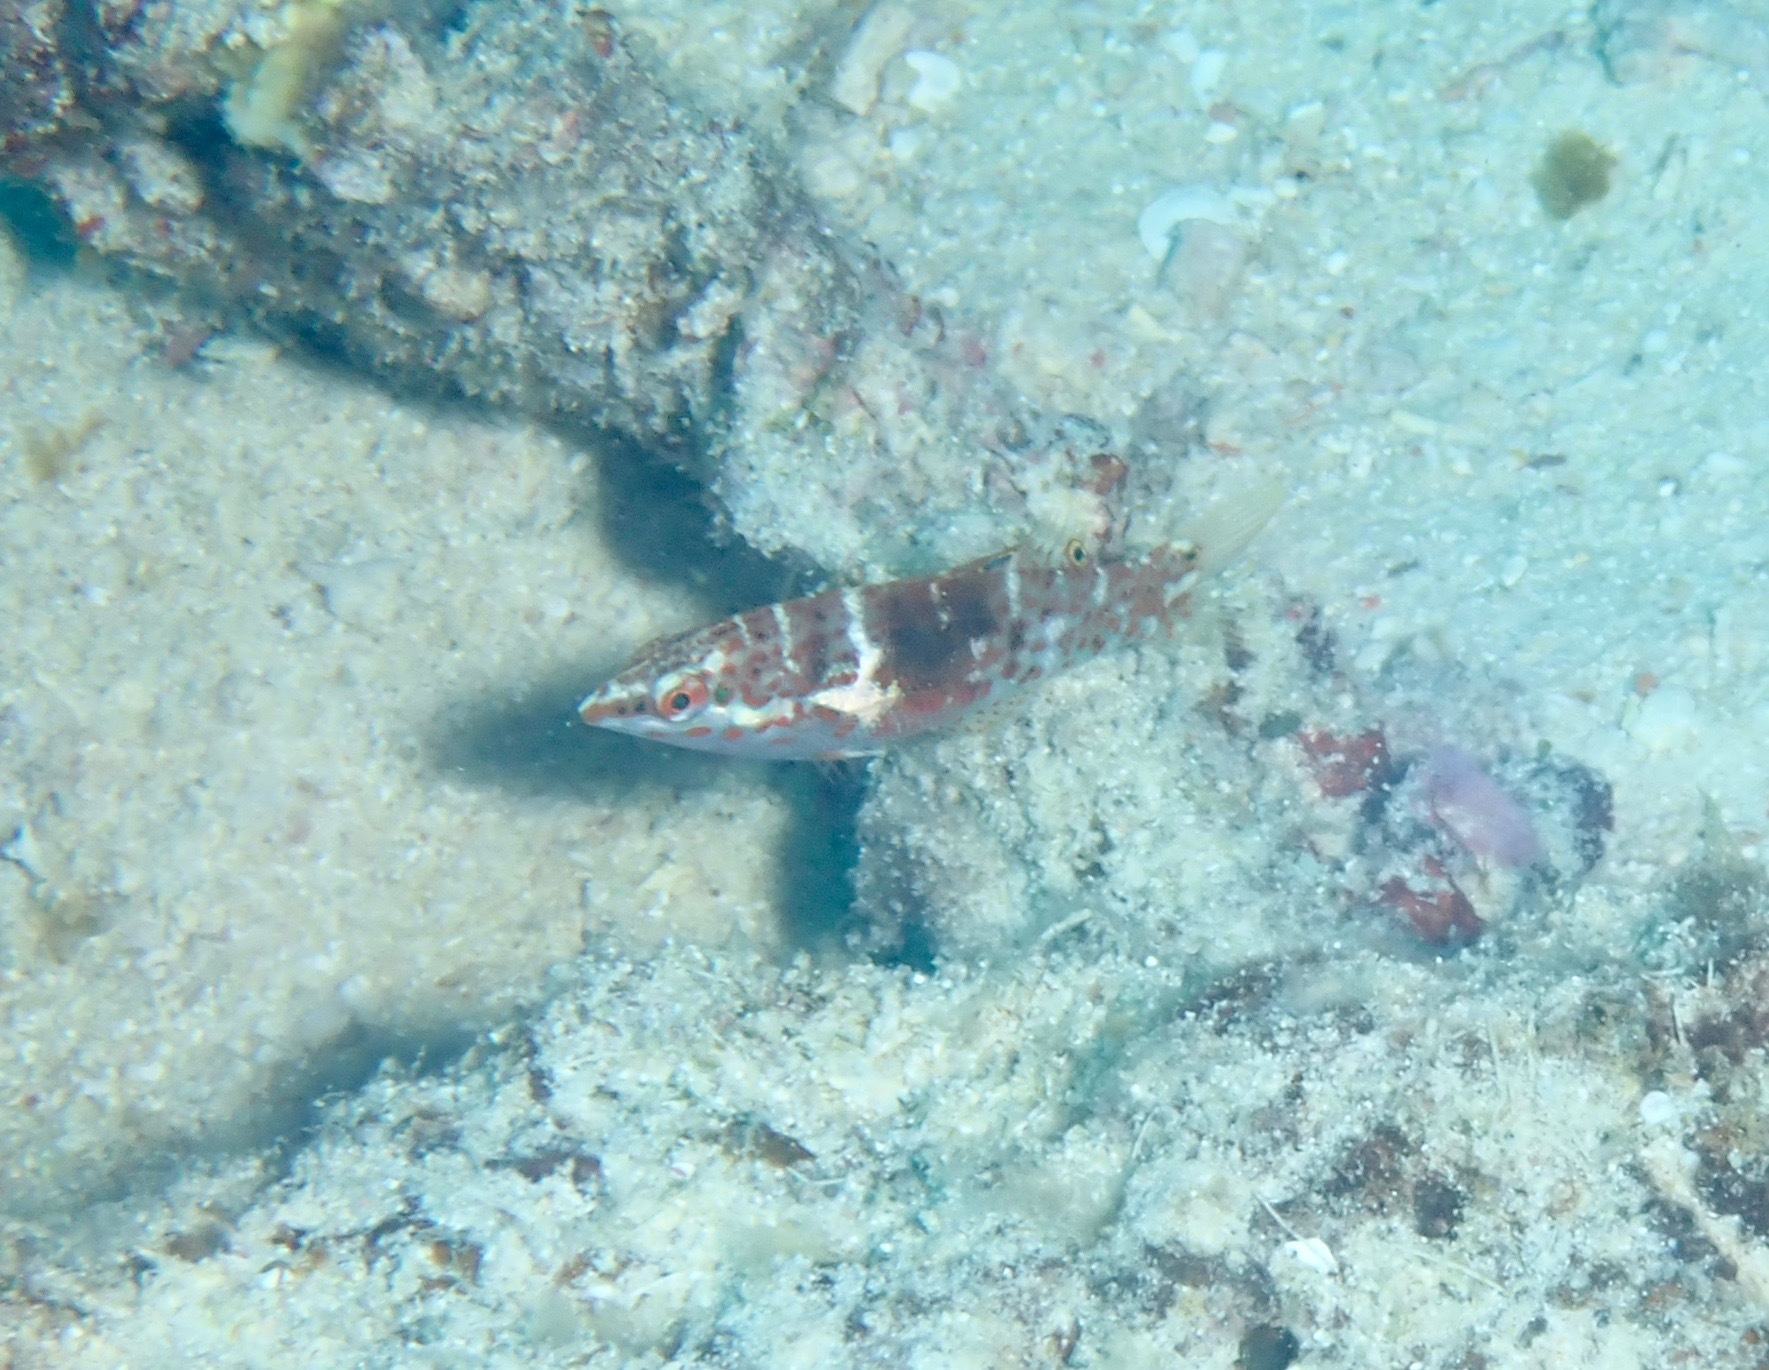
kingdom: Animalia
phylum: Chordata
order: Perciformes
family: Labridae
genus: Coris
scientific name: Coris batuensis
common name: Batu coris
